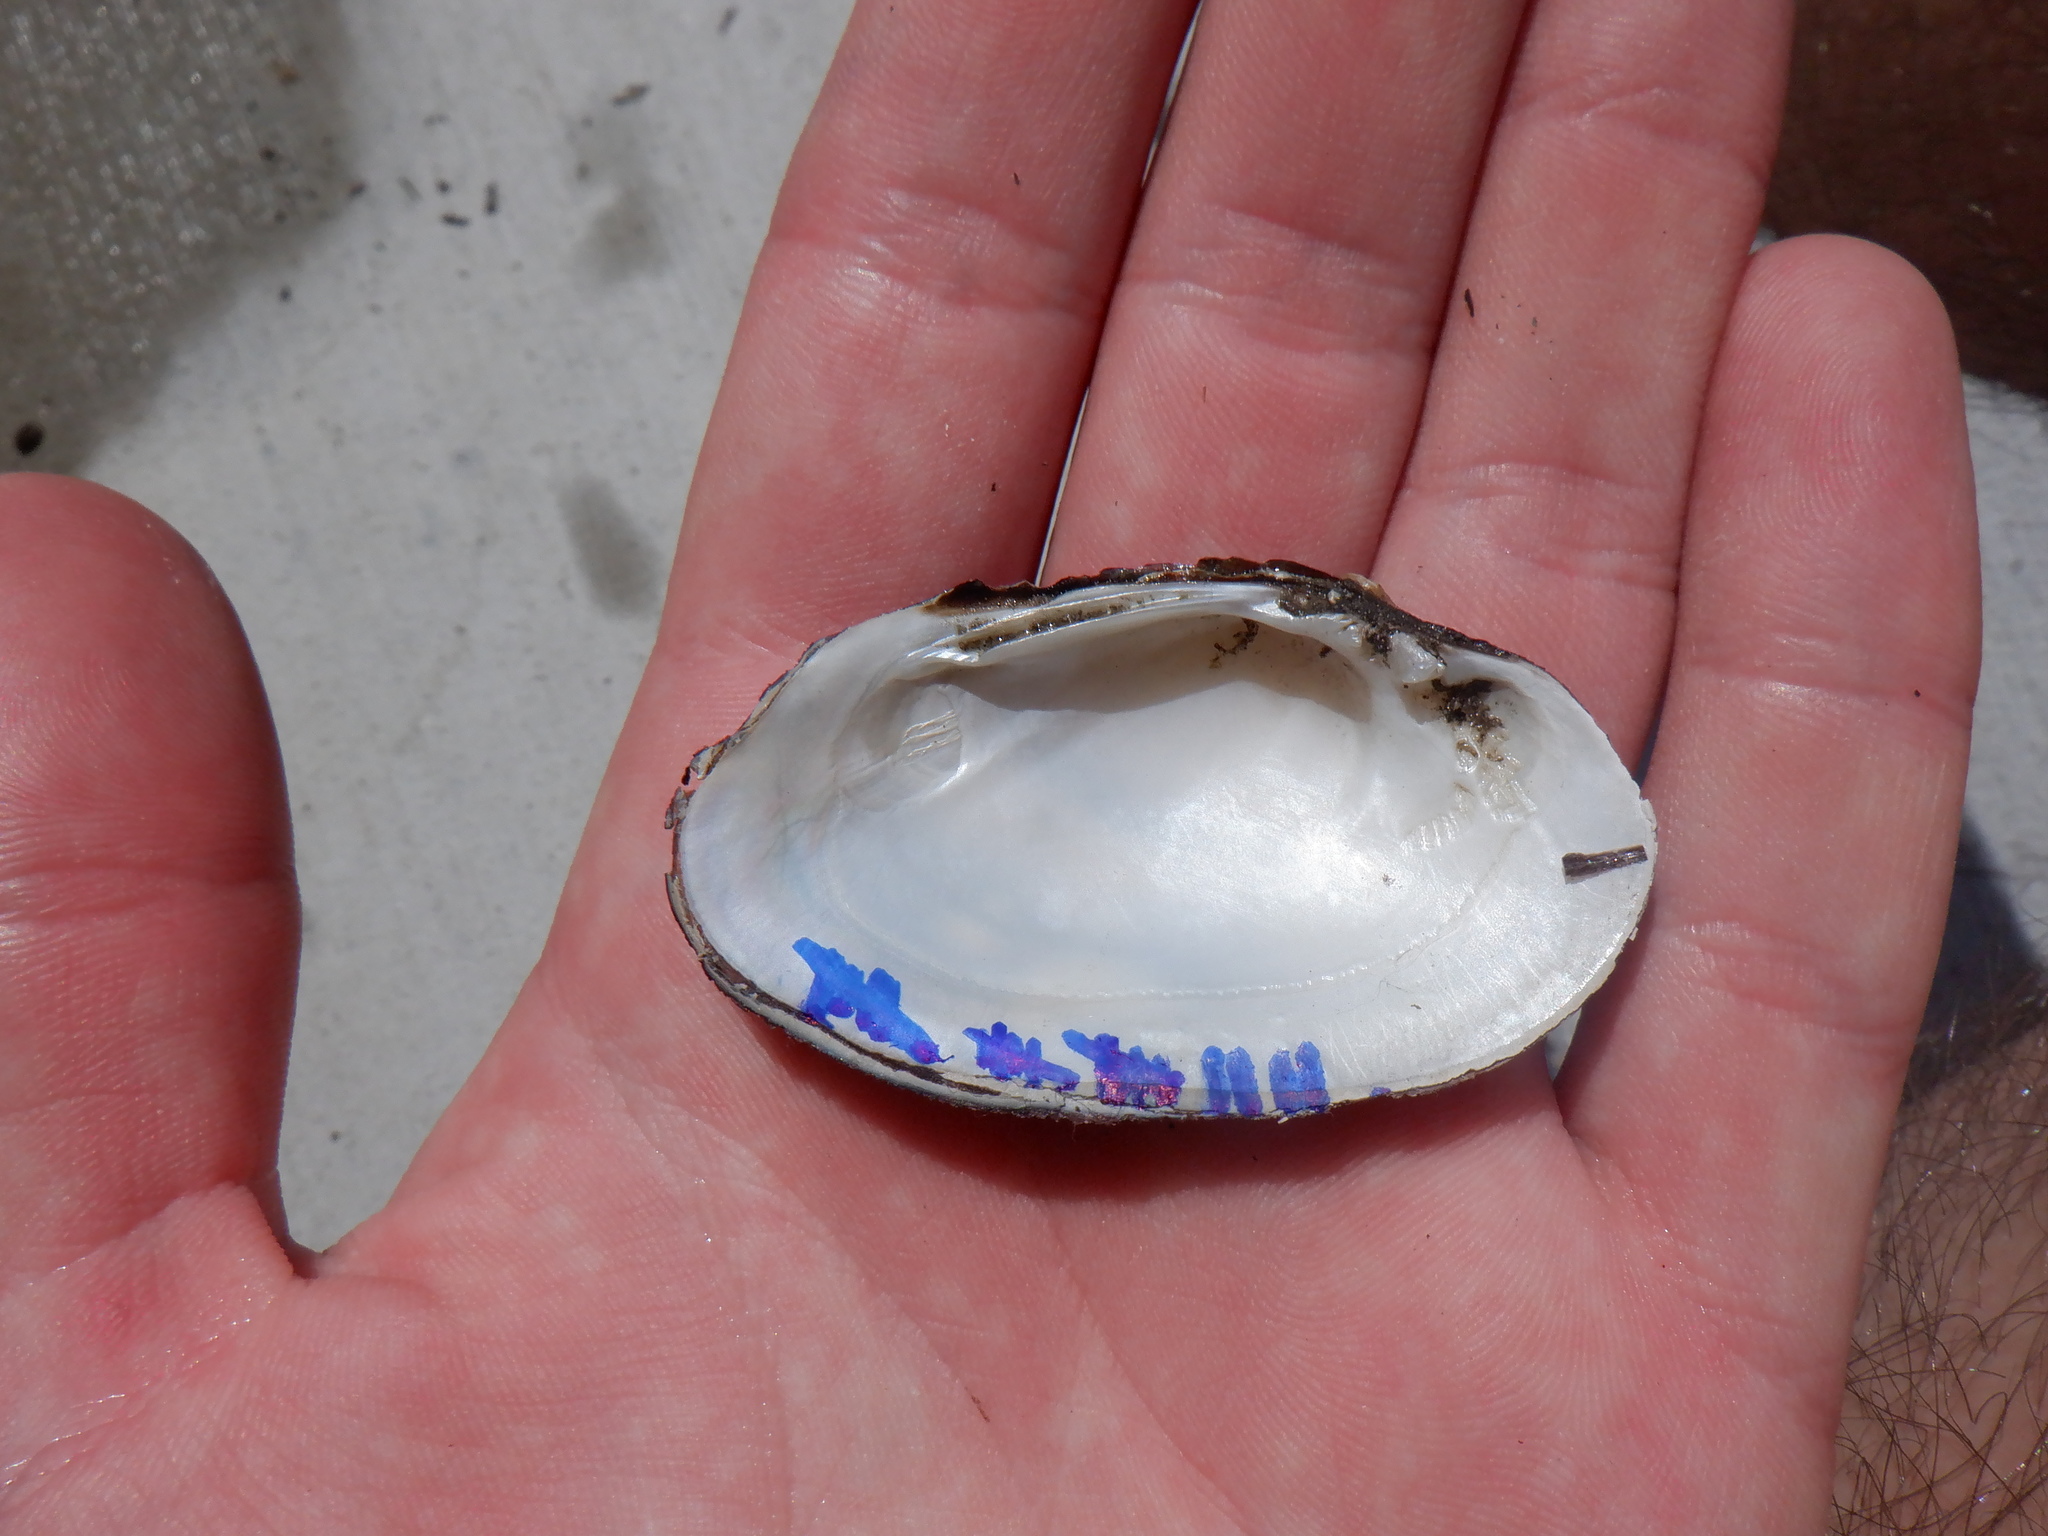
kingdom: Animalia
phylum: Mollusca
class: Bivalvia
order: Unionida
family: Unionidae
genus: Venustaconcha
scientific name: Venustaconcha ellipsiformis
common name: Ellipse
